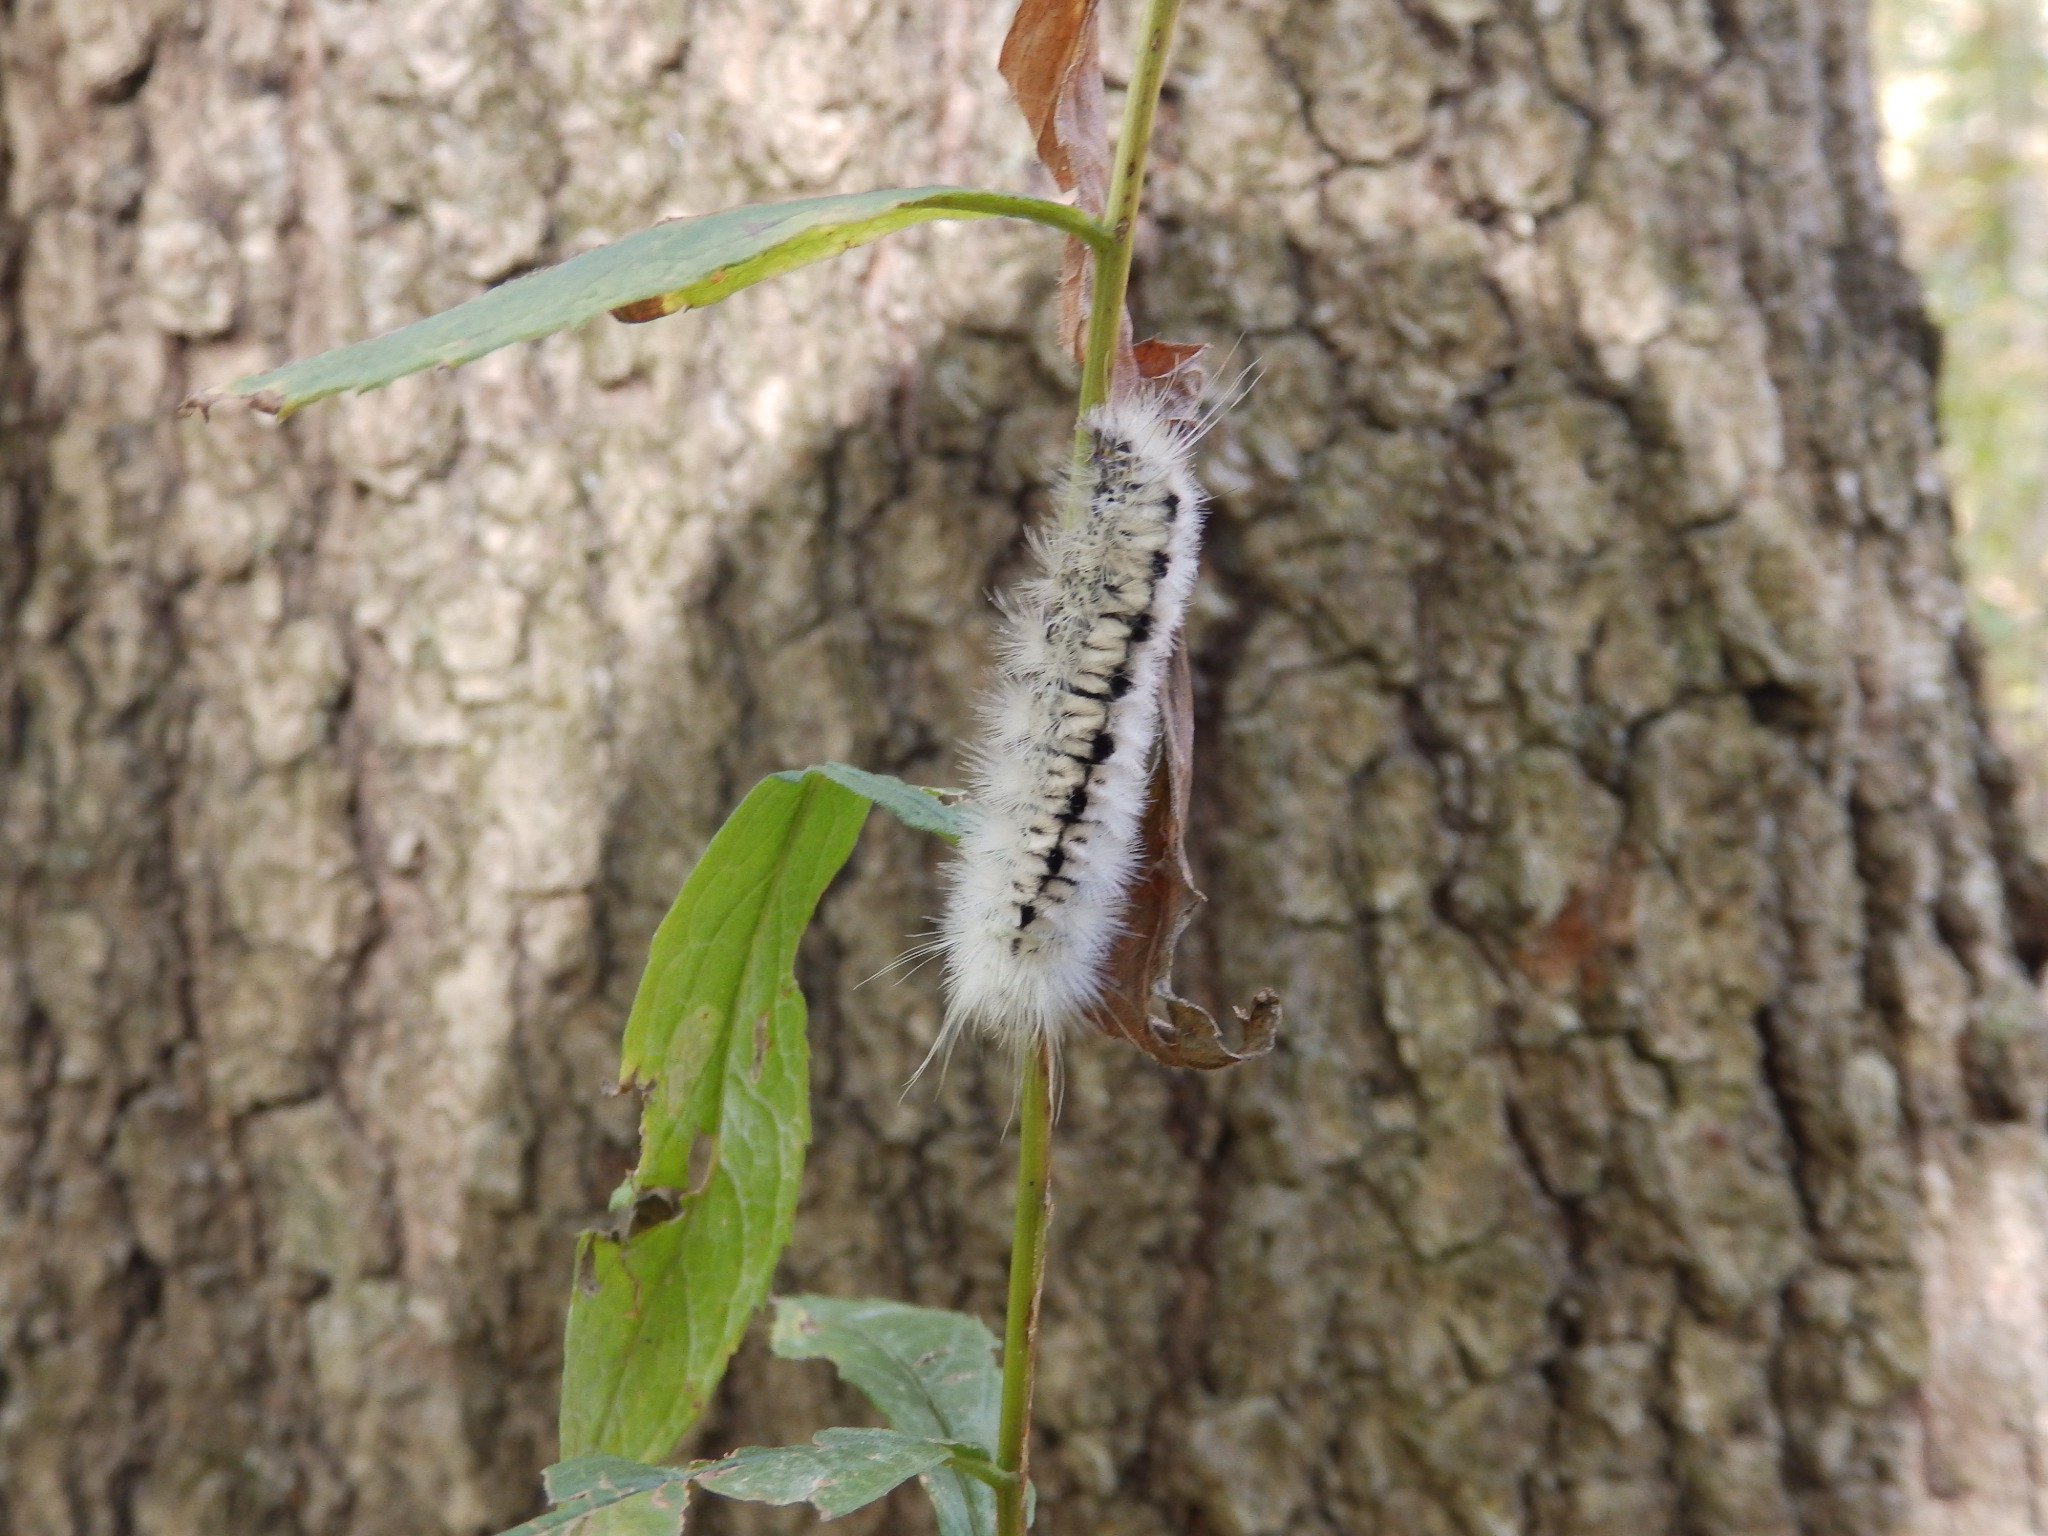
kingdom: Animalia
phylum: Arthropoda
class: Insecta
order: Lepidoptera
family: Erebidae
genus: Lophocampa
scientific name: Lophocampa caryae
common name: Hickory tussock moth
